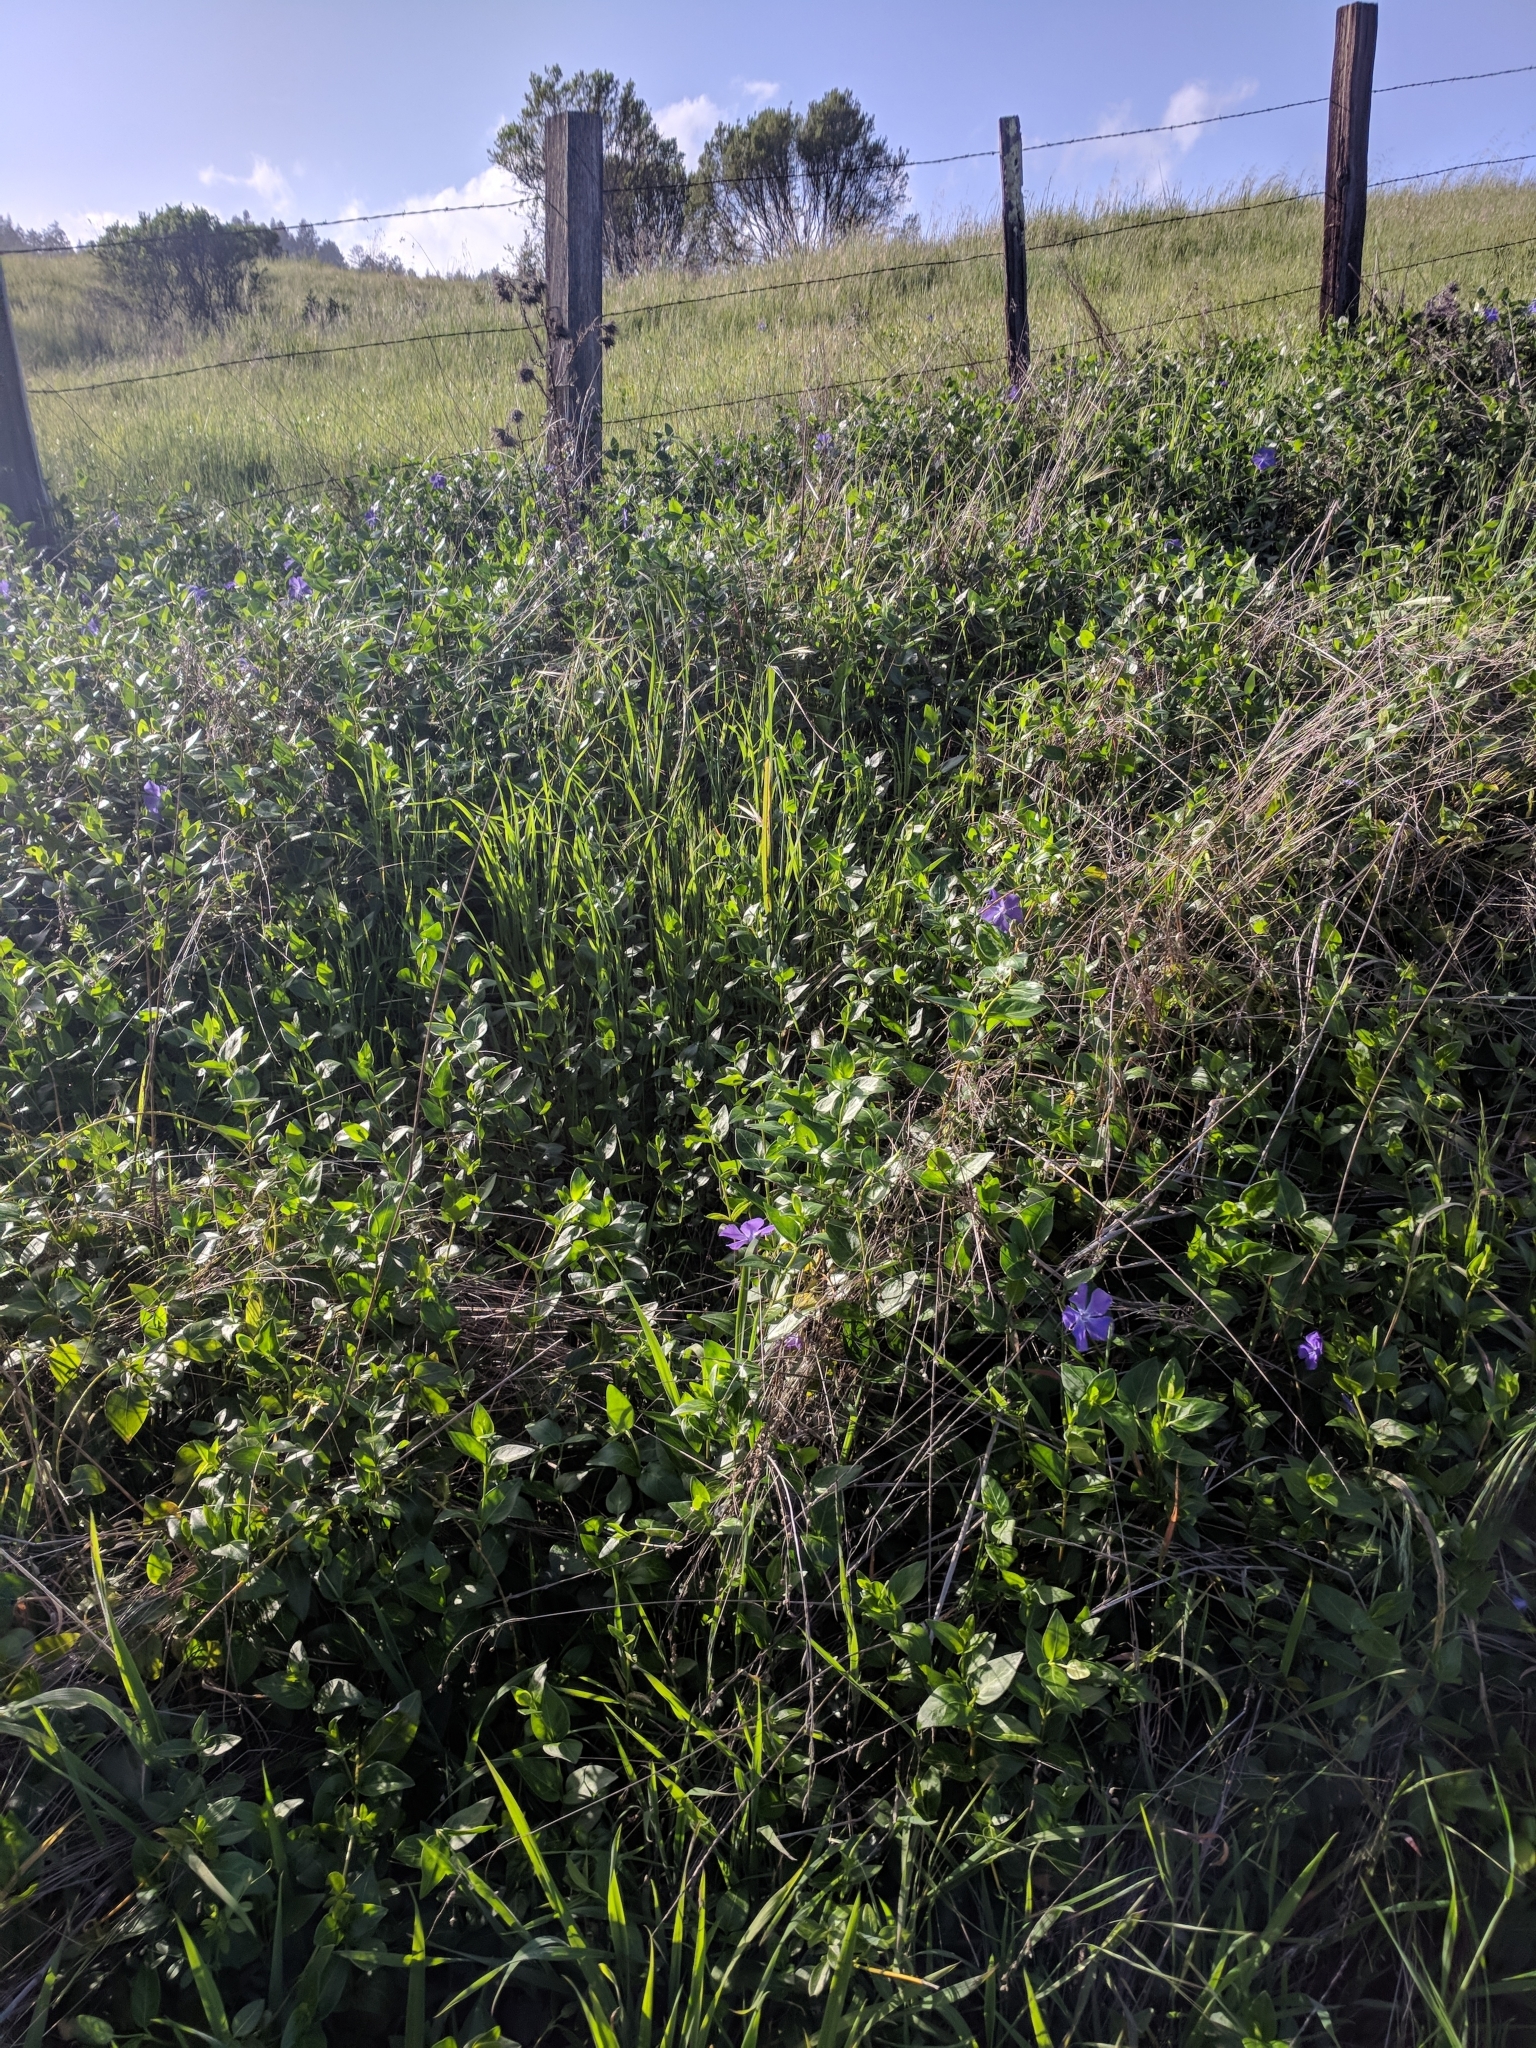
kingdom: Plantae
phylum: Tracheophyta
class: Magnoliopsida
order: Gentianales
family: Apocynaceae
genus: Vinca
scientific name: Vinca major
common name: Greater periwinkle
